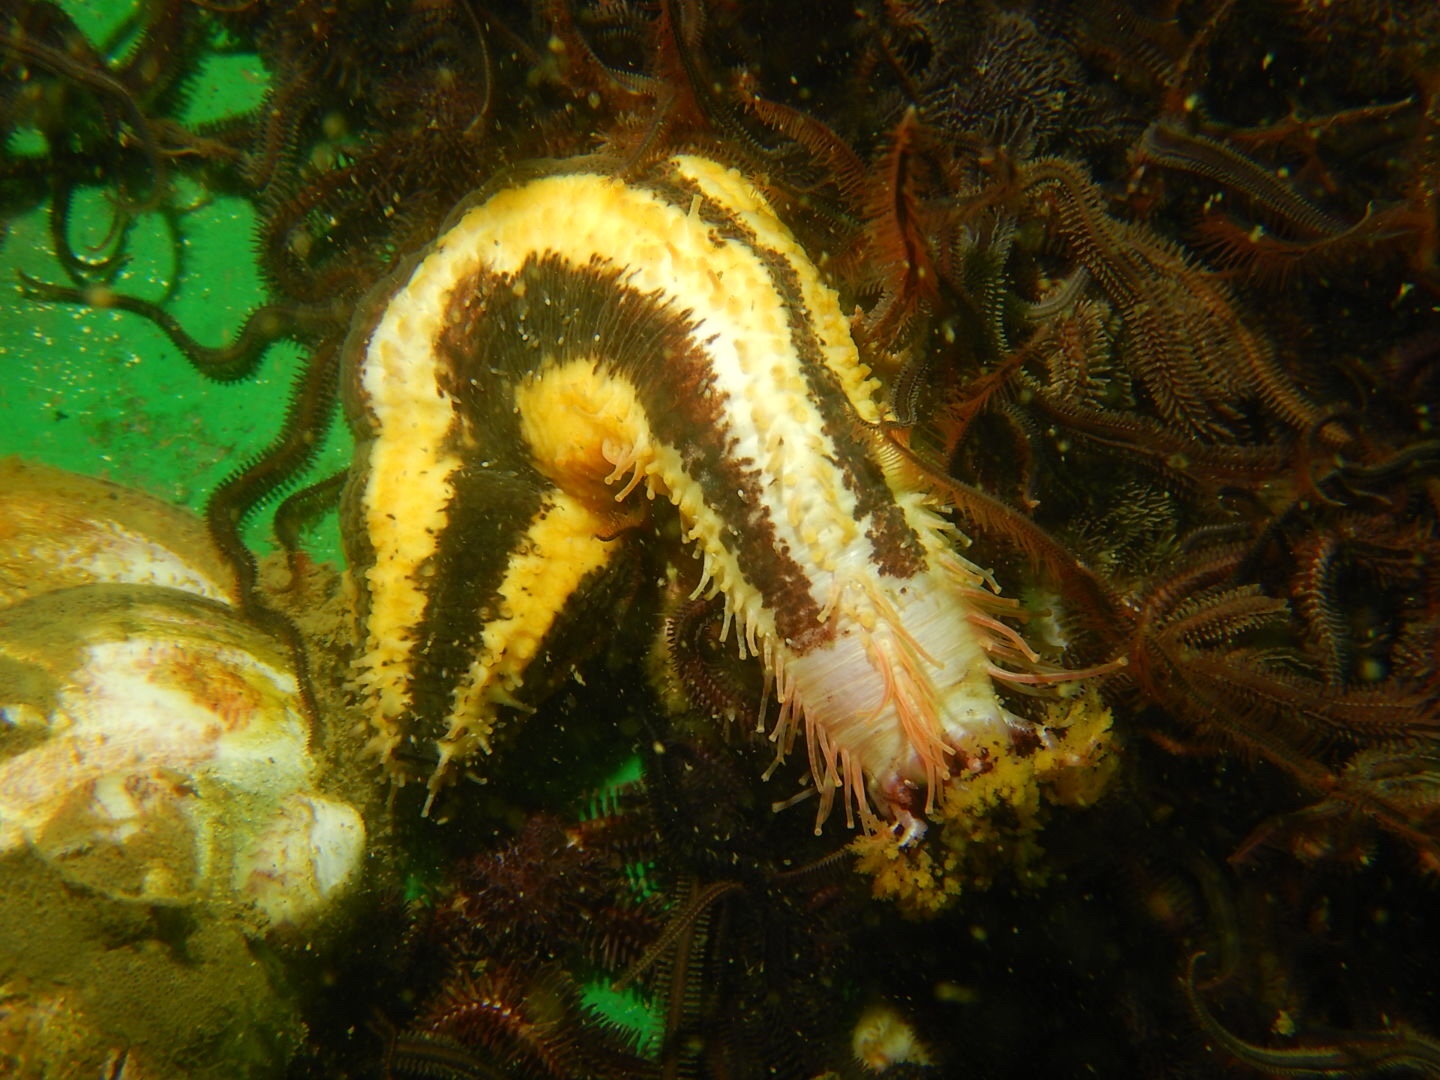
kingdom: Animalia
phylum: Echinodermata
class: Holothuroidea
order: Dendrochirotida
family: Cucumariidae
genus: Heterocucumis
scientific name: Heterocucumis godeffroyi
